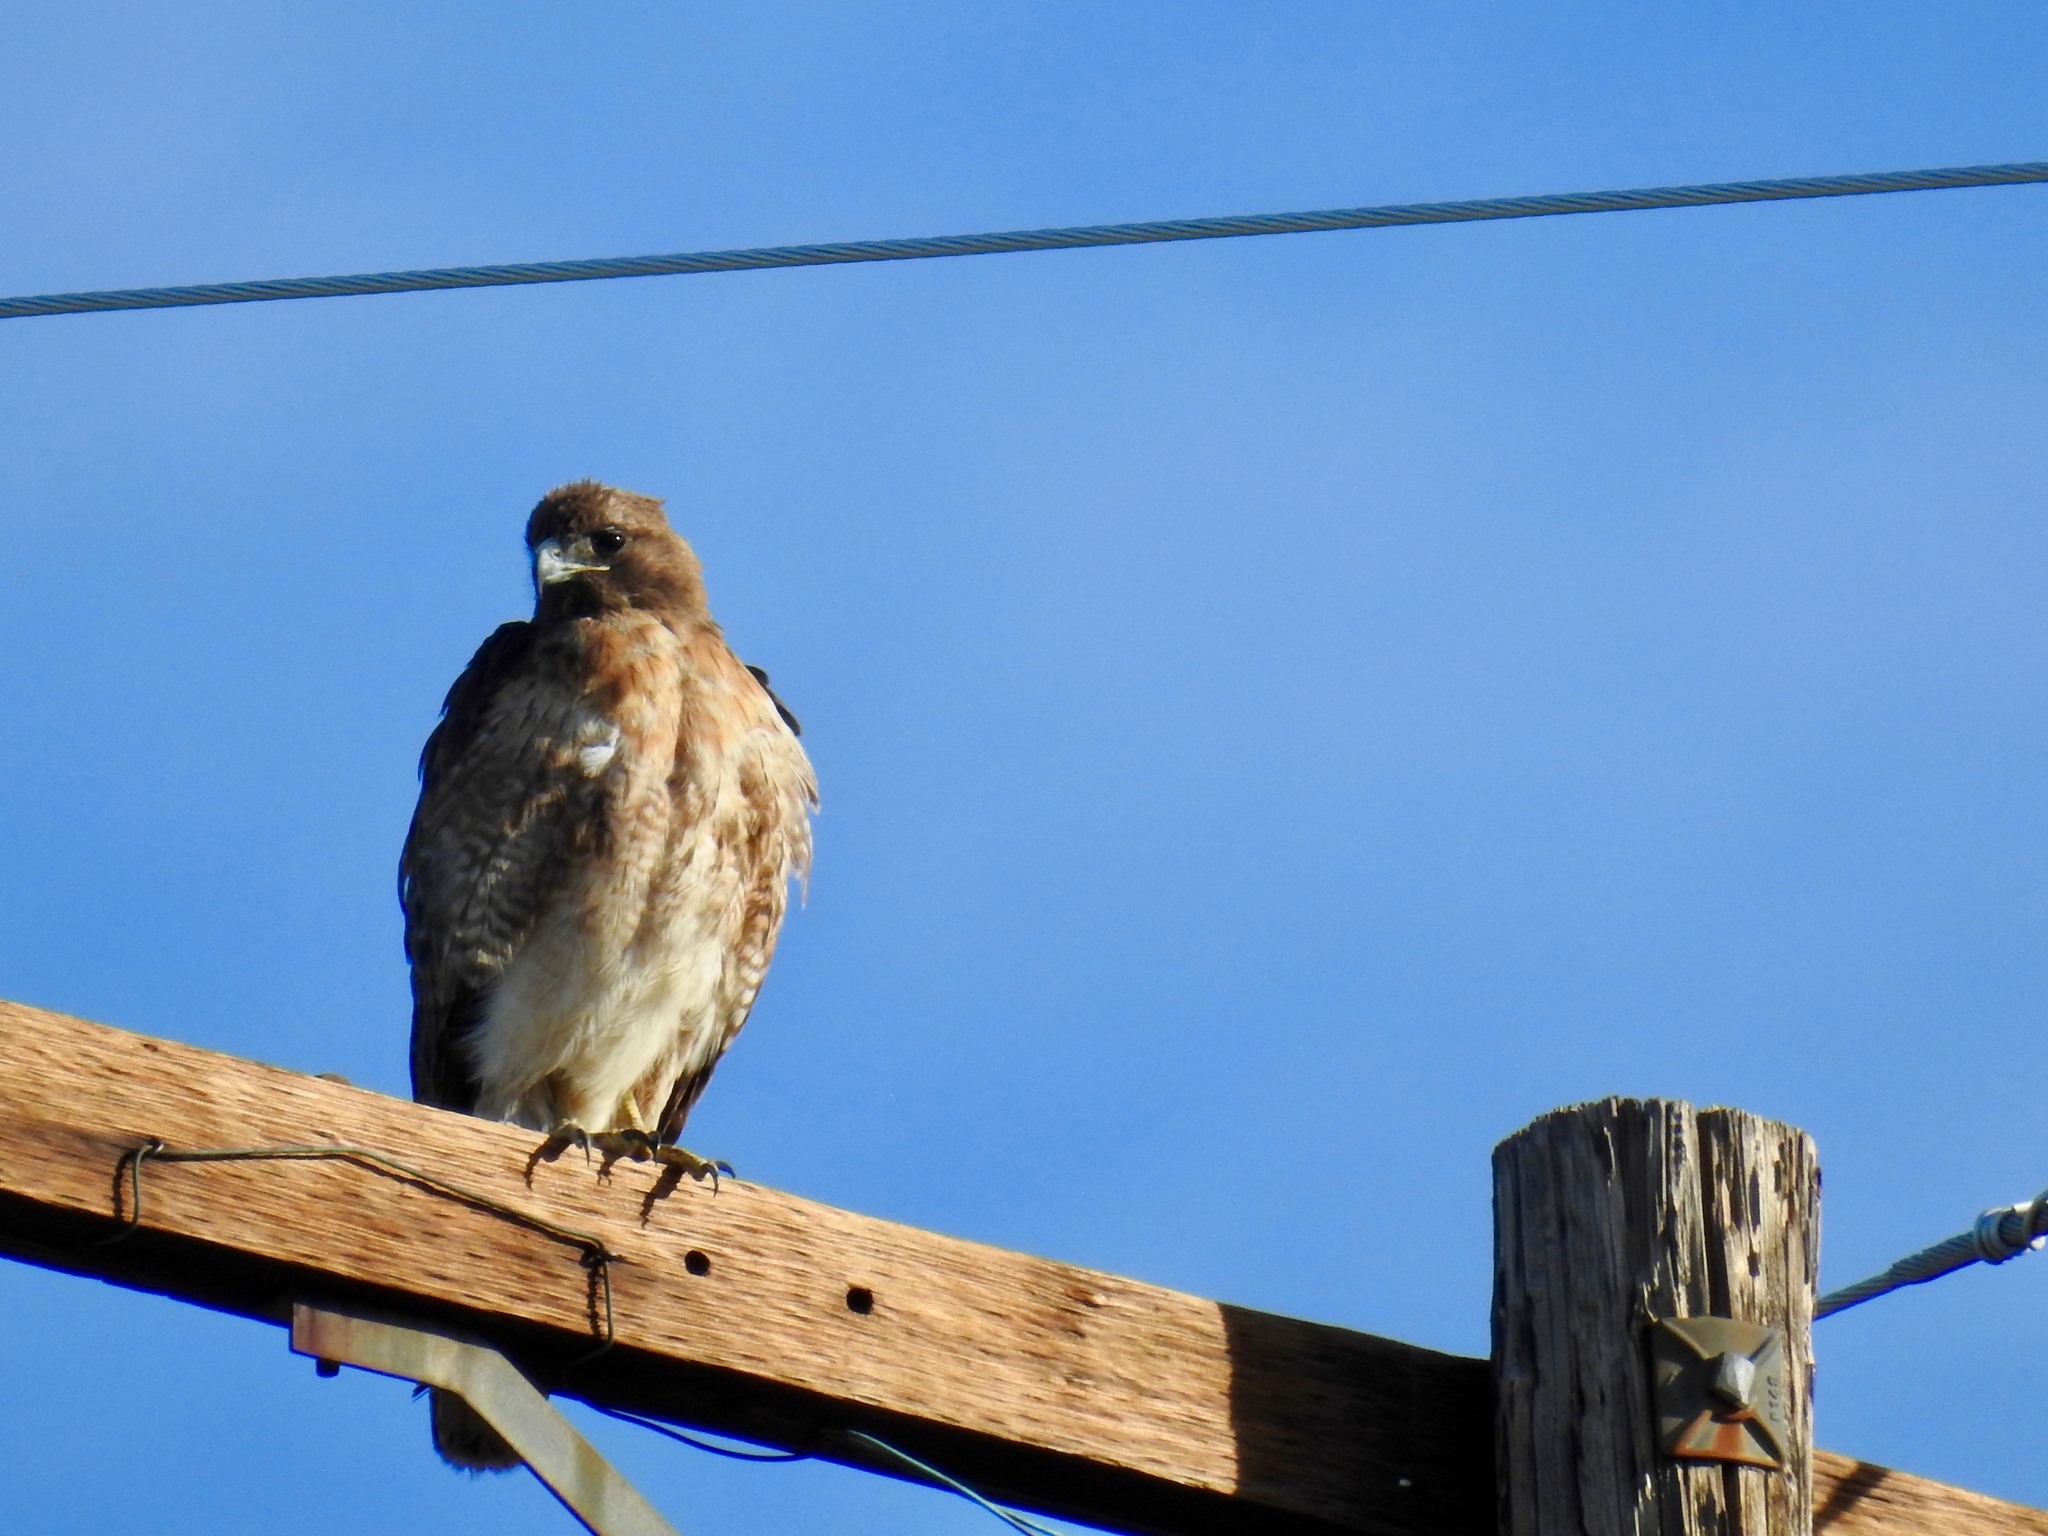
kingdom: Animalia
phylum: Chordata
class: Aves
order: Accipitriformes
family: Accipitridae
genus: Buteo
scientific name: Buteo jamaicensis
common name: Red-tailed hawk
